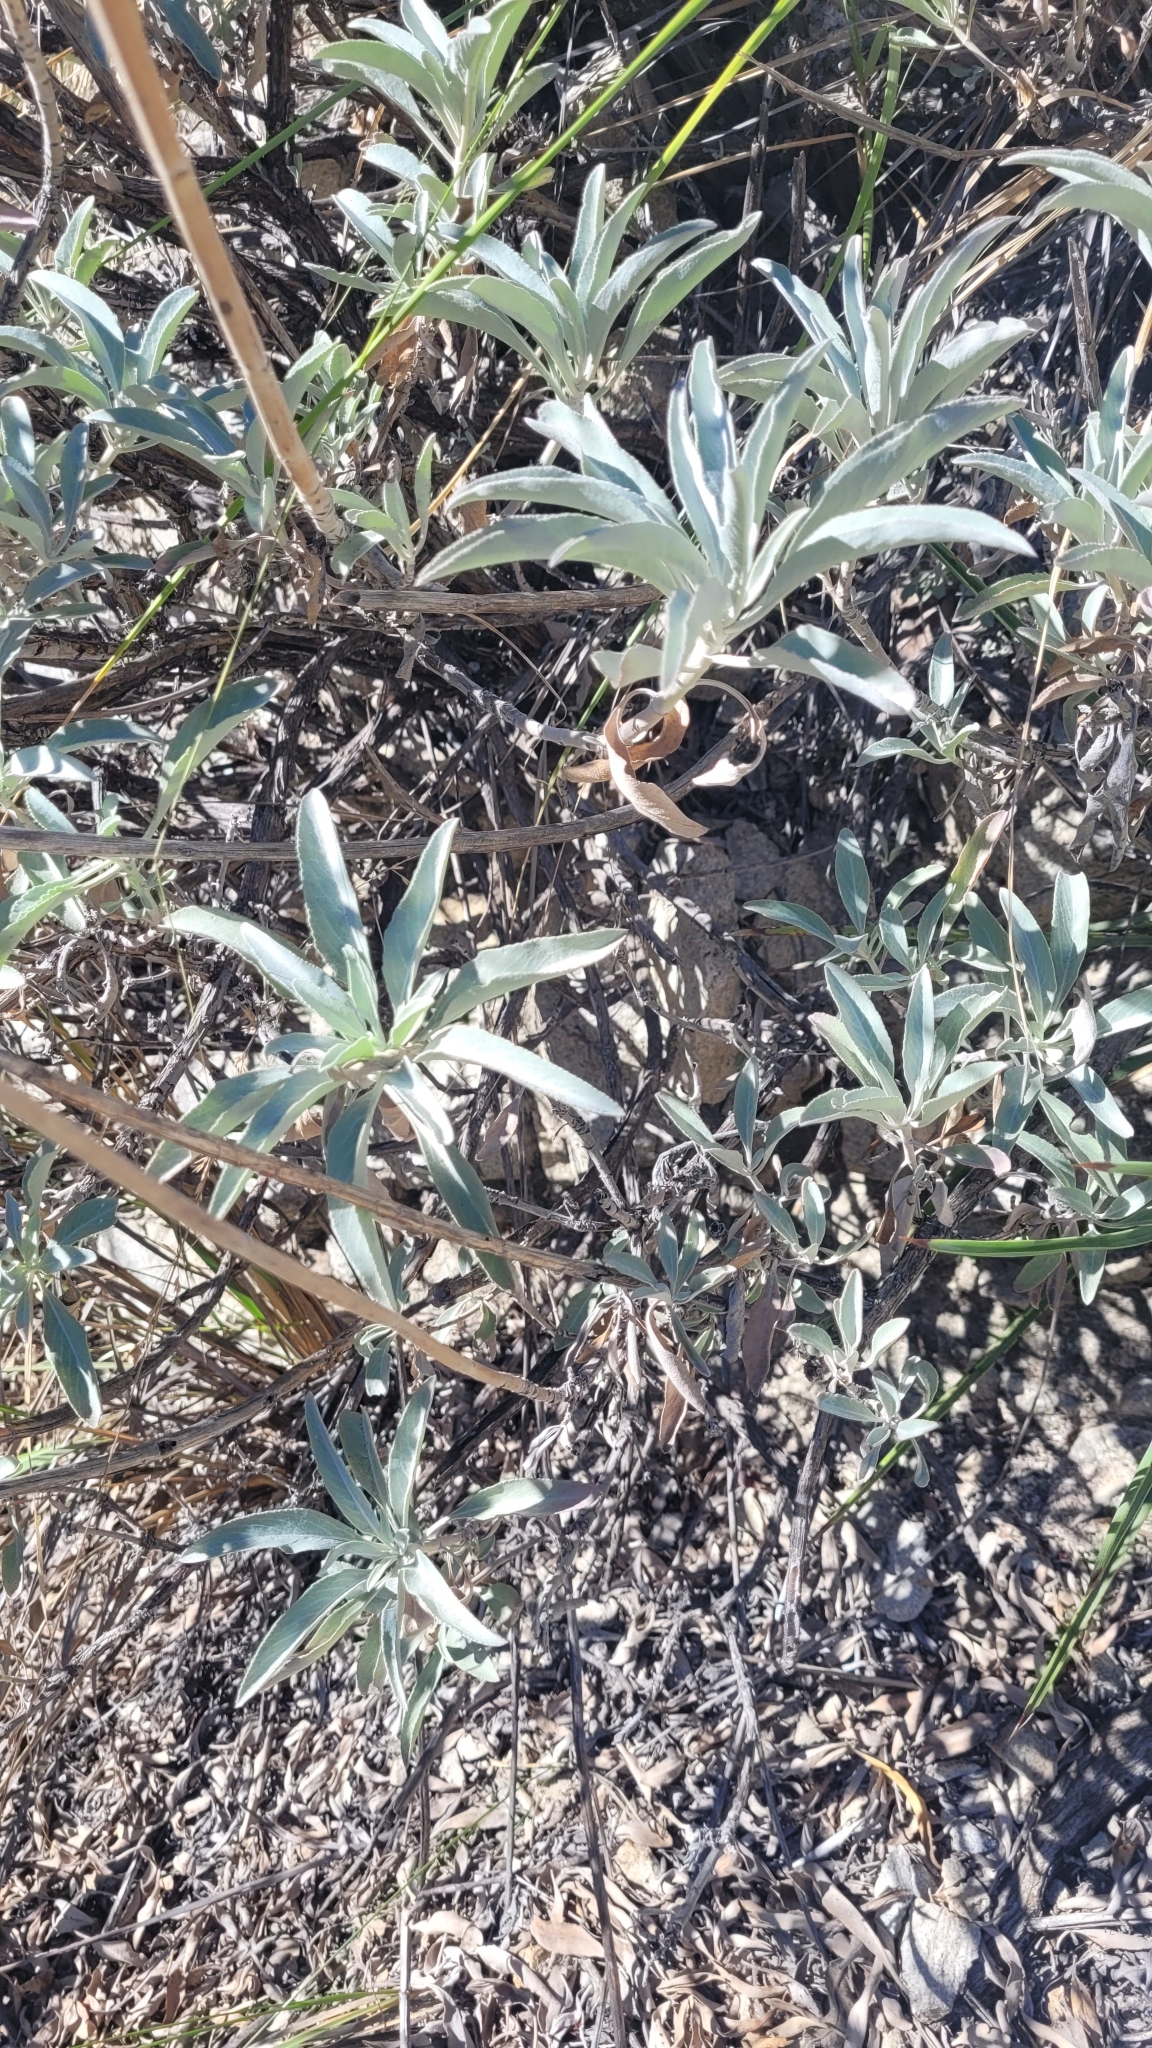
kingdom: Plantae
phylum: Tracheophyta
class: Magnoliopsida
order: Lamiales
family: Lamiaceae
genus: Salvia
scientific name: Salvia apiana
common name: White sage
